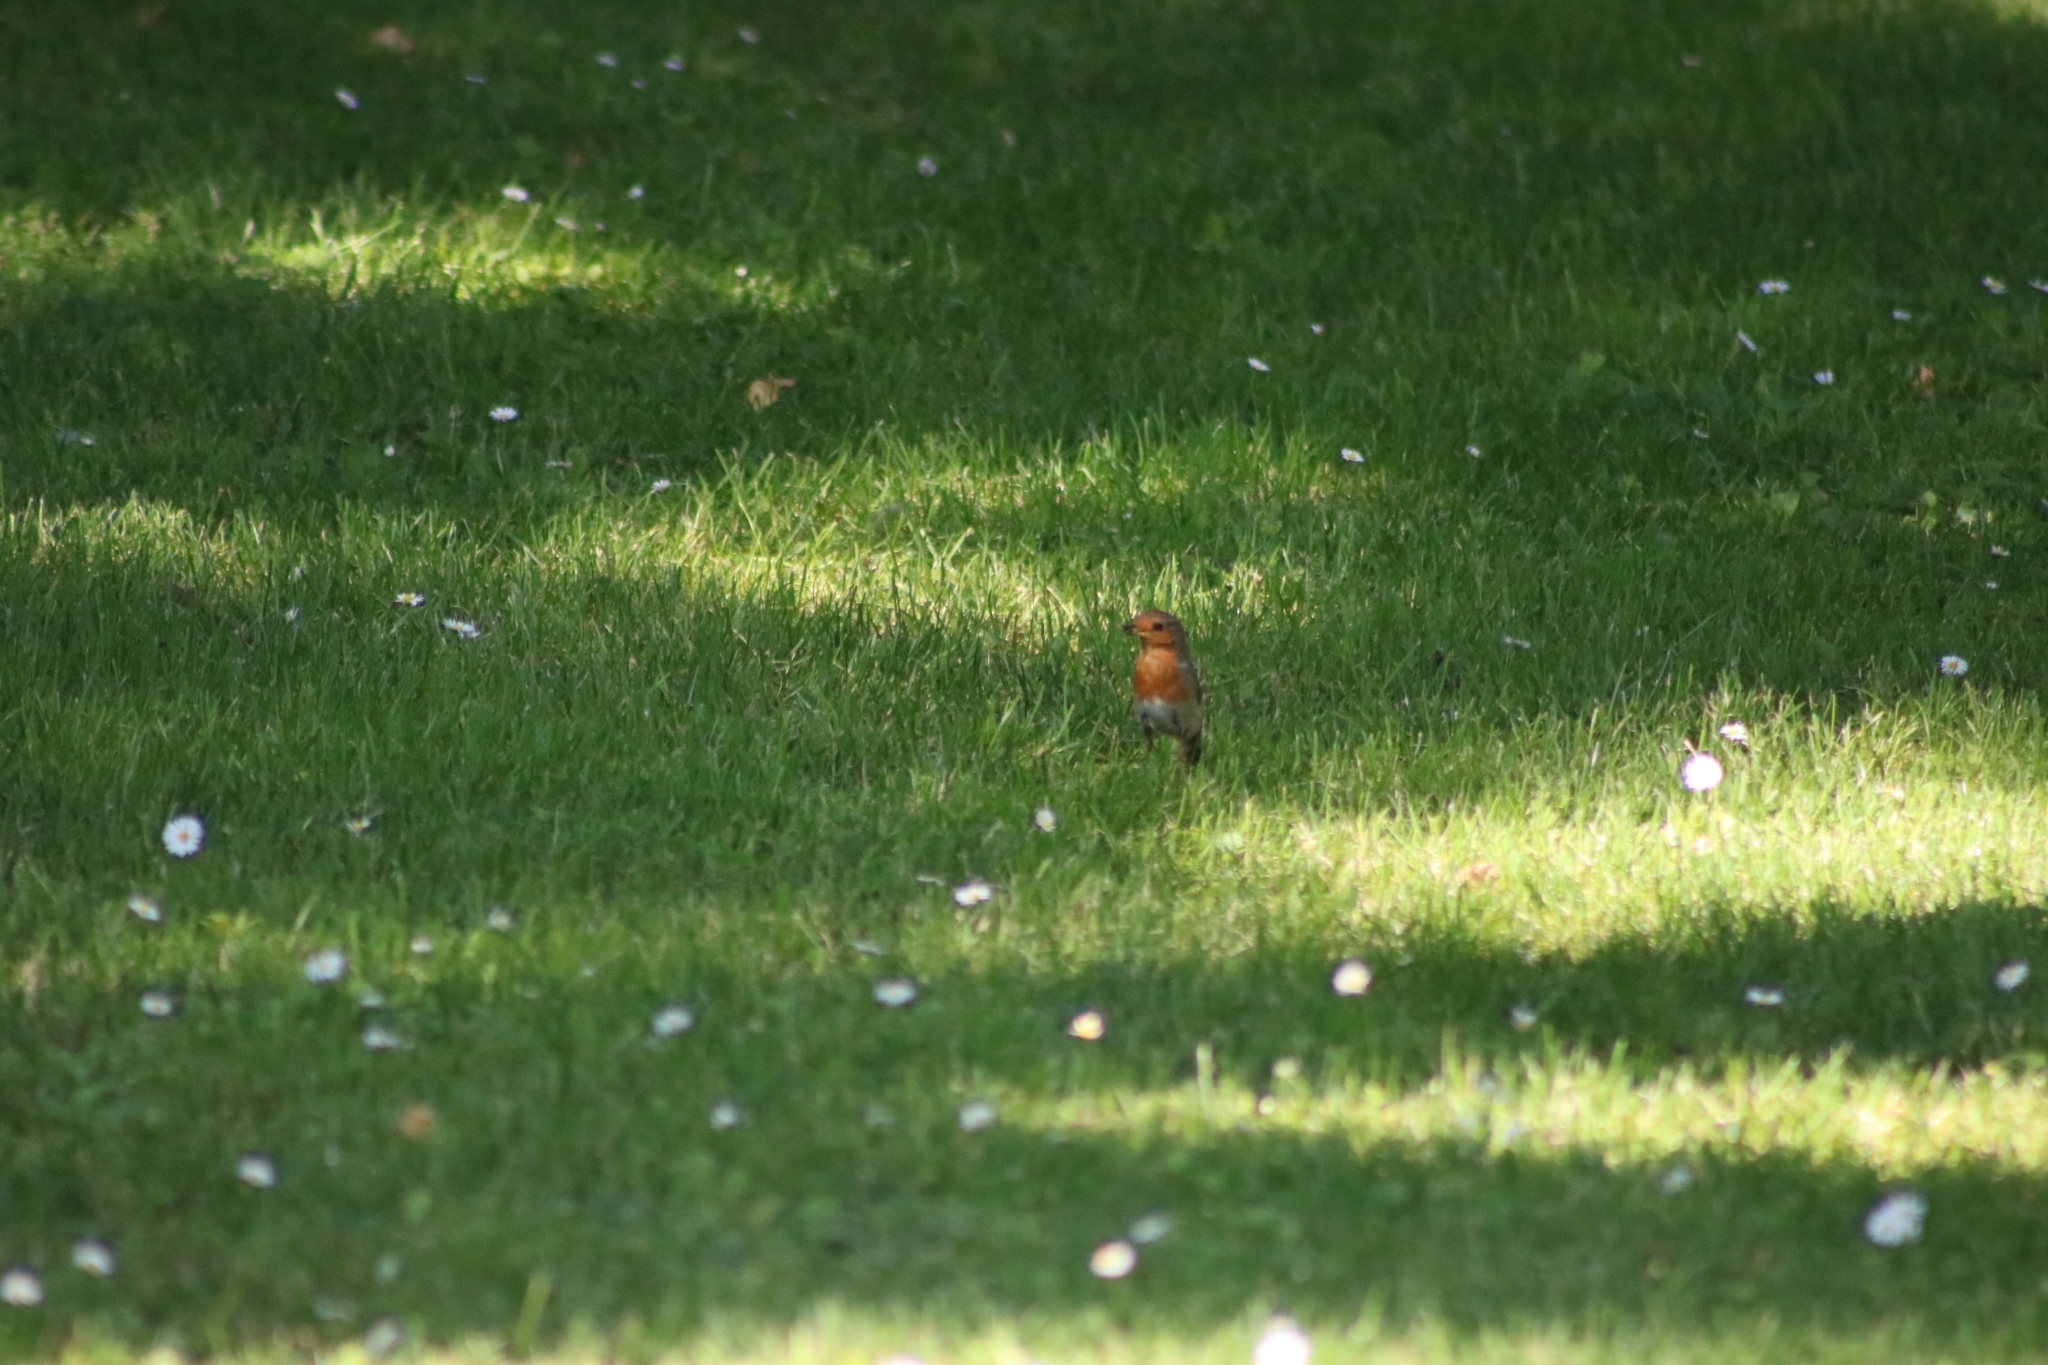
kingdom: Animalia
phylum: Chordata
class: Aves
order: Passeriformes
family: Muscicapidae
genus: Erithacus
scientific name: Erithacus rubecula
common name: European robin
